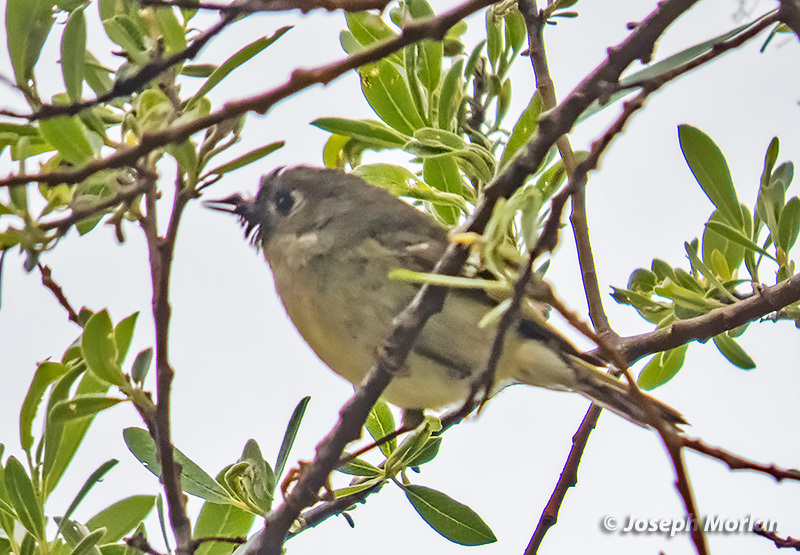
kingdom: Animalia
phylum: Chordata
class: Aves
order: Passeriformes
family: Regulidae
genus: Regulus
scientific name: Regulus calendula
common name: Ruby-crowned kinglet
